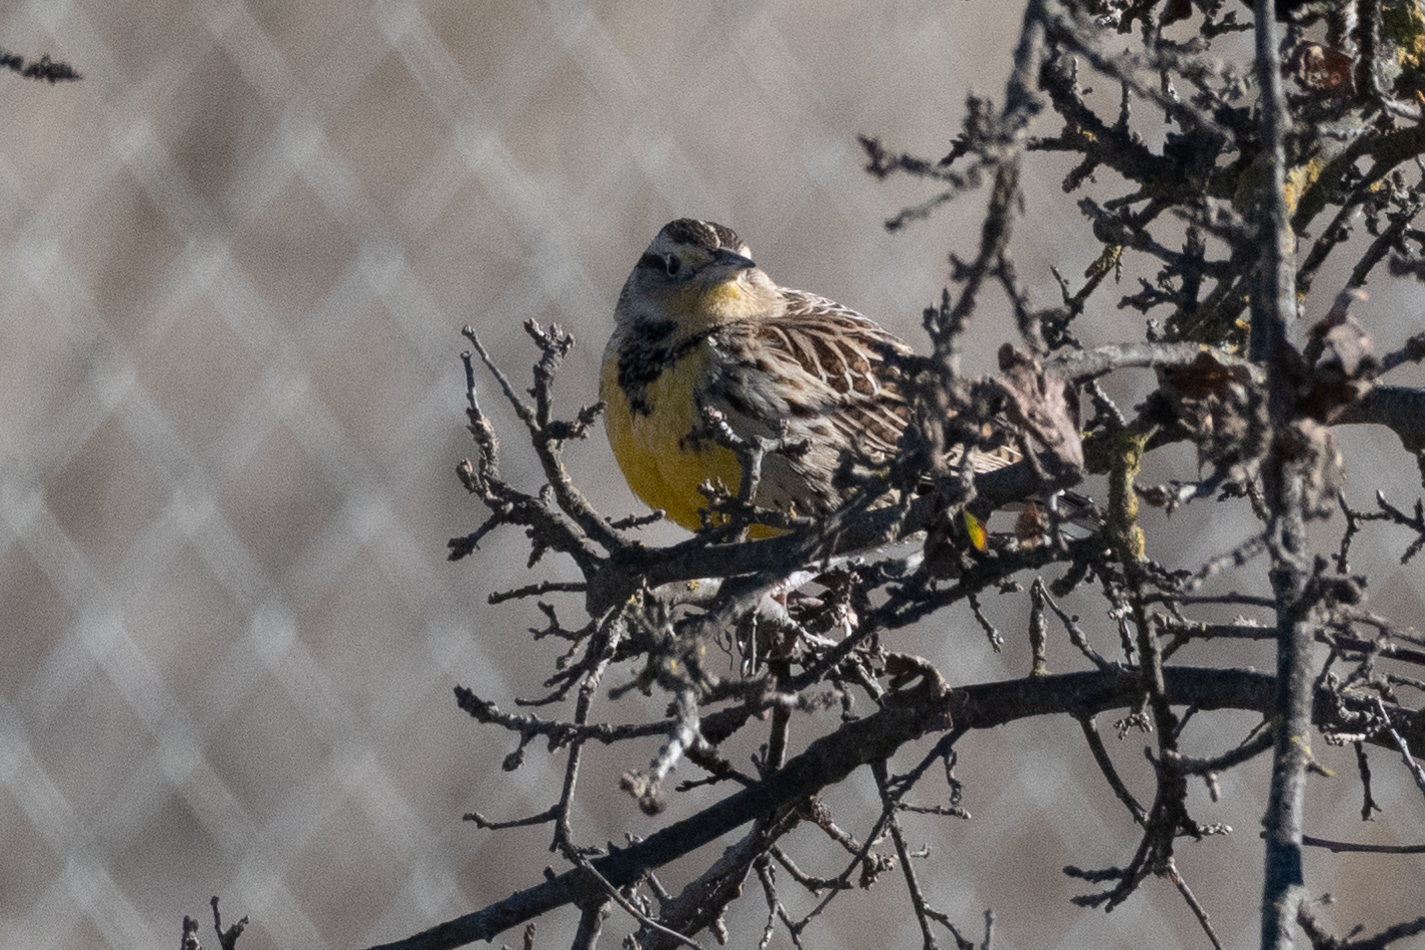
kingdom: Animalia
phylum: Chordata
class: Aves
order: Passeriformes
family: Icteridae
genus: Sturnella
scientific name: Sturnella neglecta
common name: Western meadowlark
